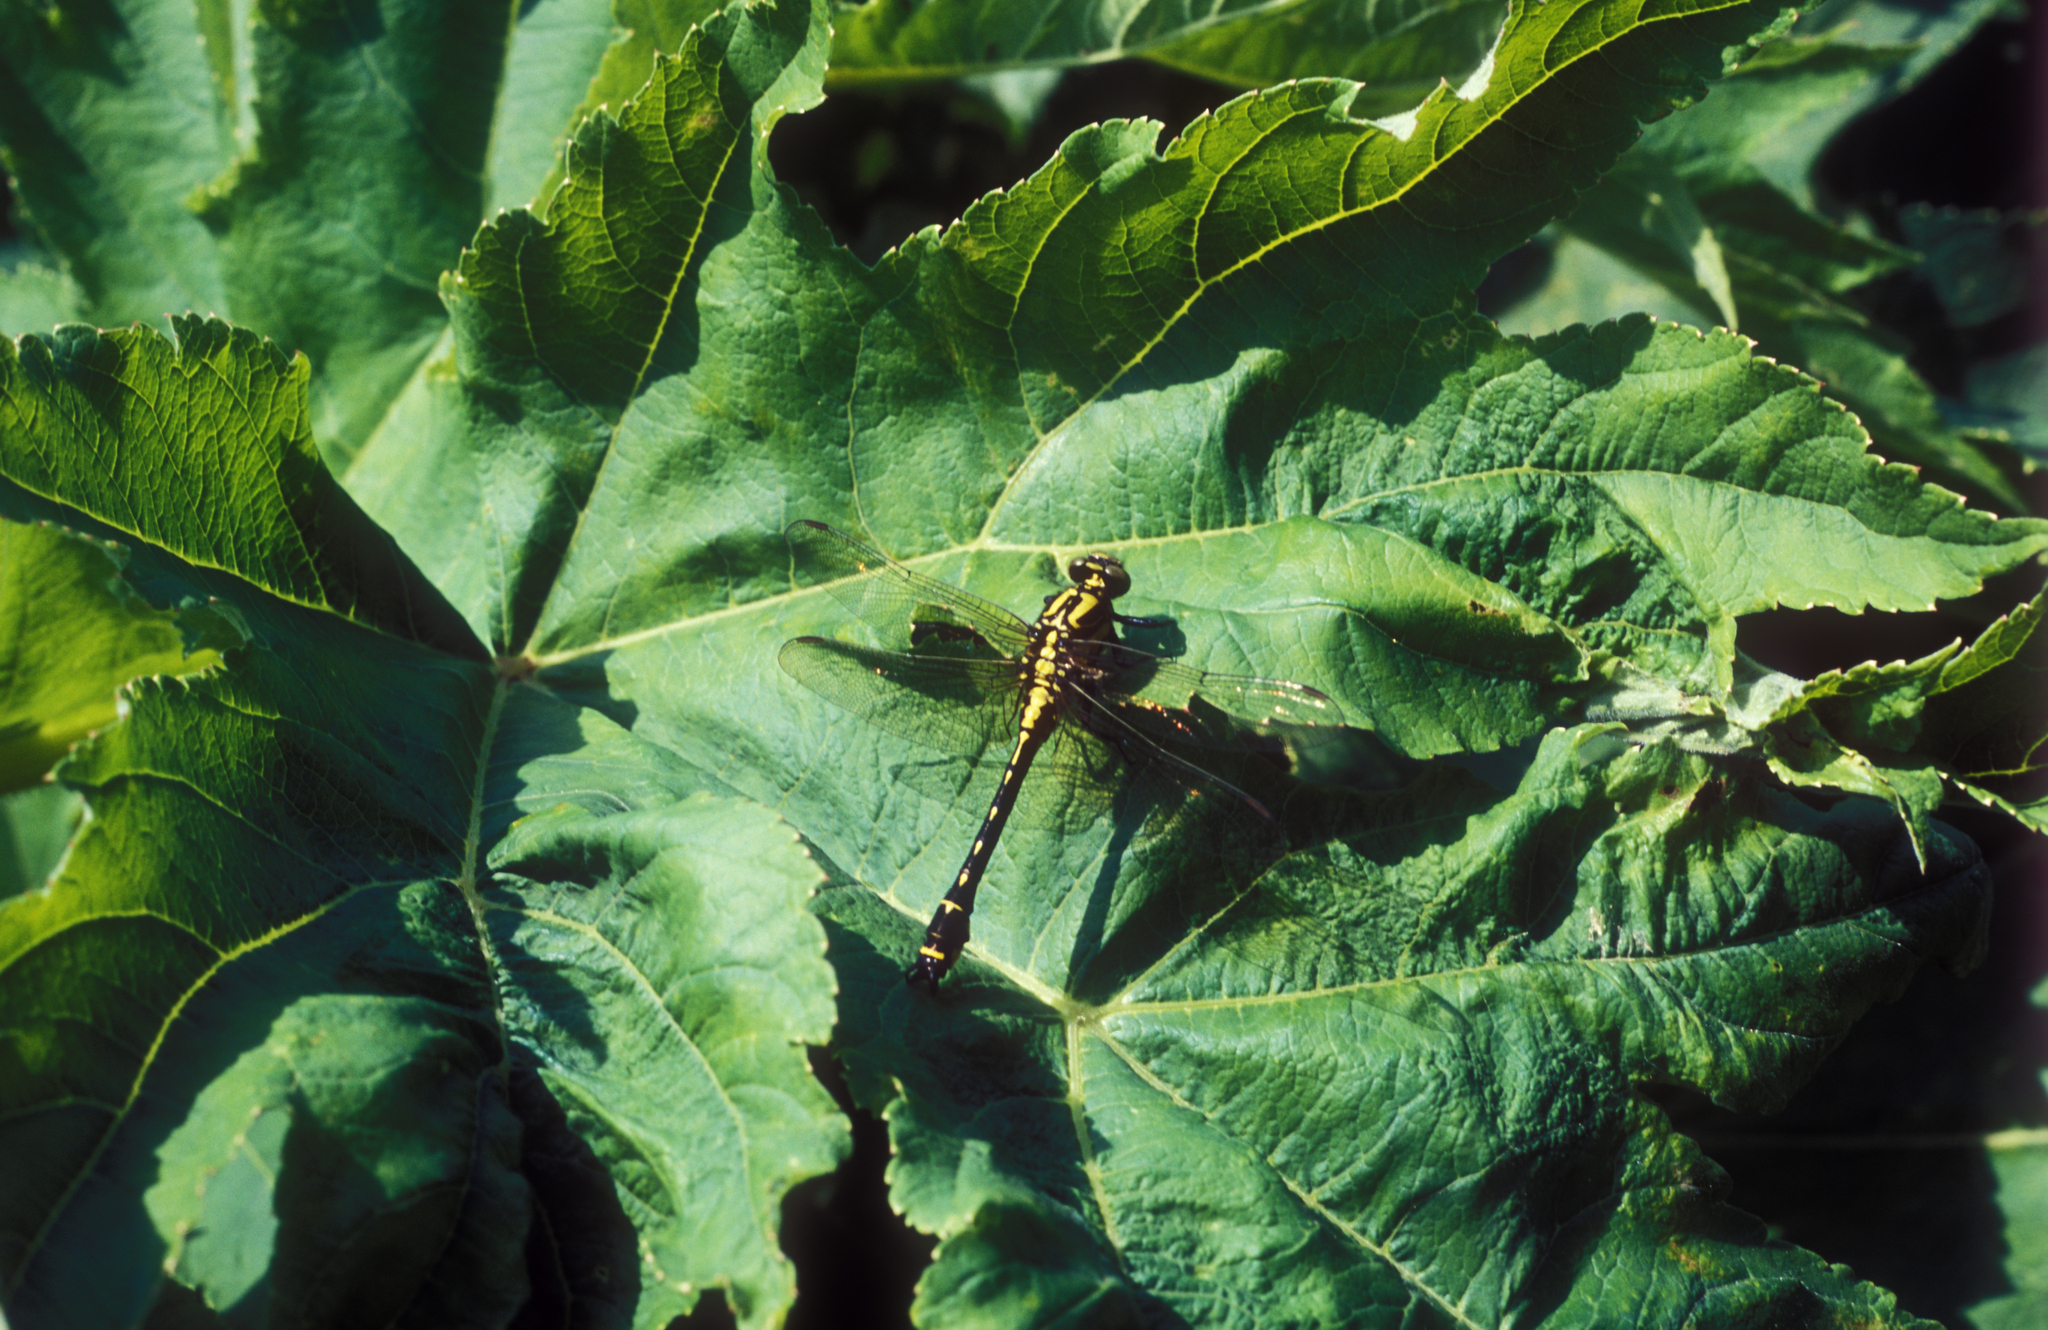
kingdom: Plantae
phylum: Tracheophyta
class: Magnoliopsida
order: Apiales
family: Apiaceae
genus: Heracleum
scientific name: Heracleum dissectum
